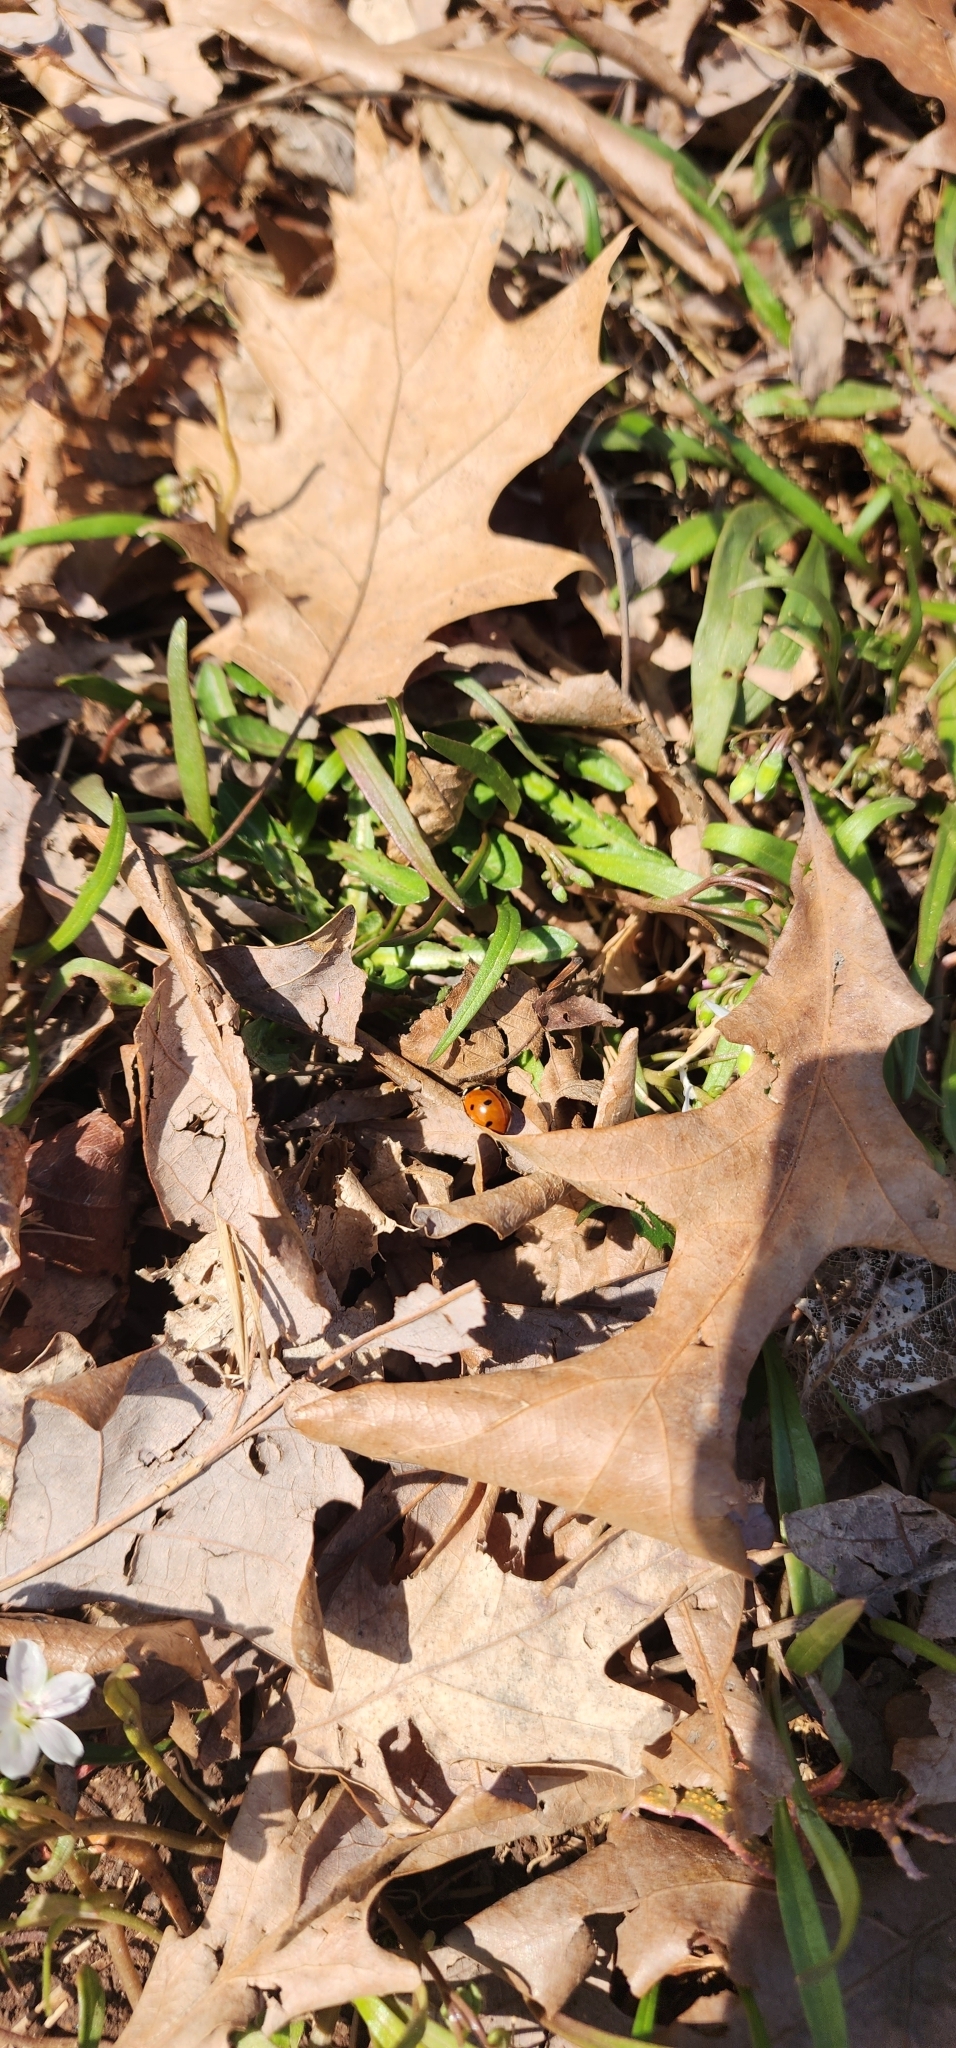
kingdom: Animalia
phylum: Arthropoda
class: Insecta
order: Coleoptera
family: Coccinellidae
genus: Coccinella
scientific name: Coccinella septempunctata
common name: Sevenspotted lady beetle
